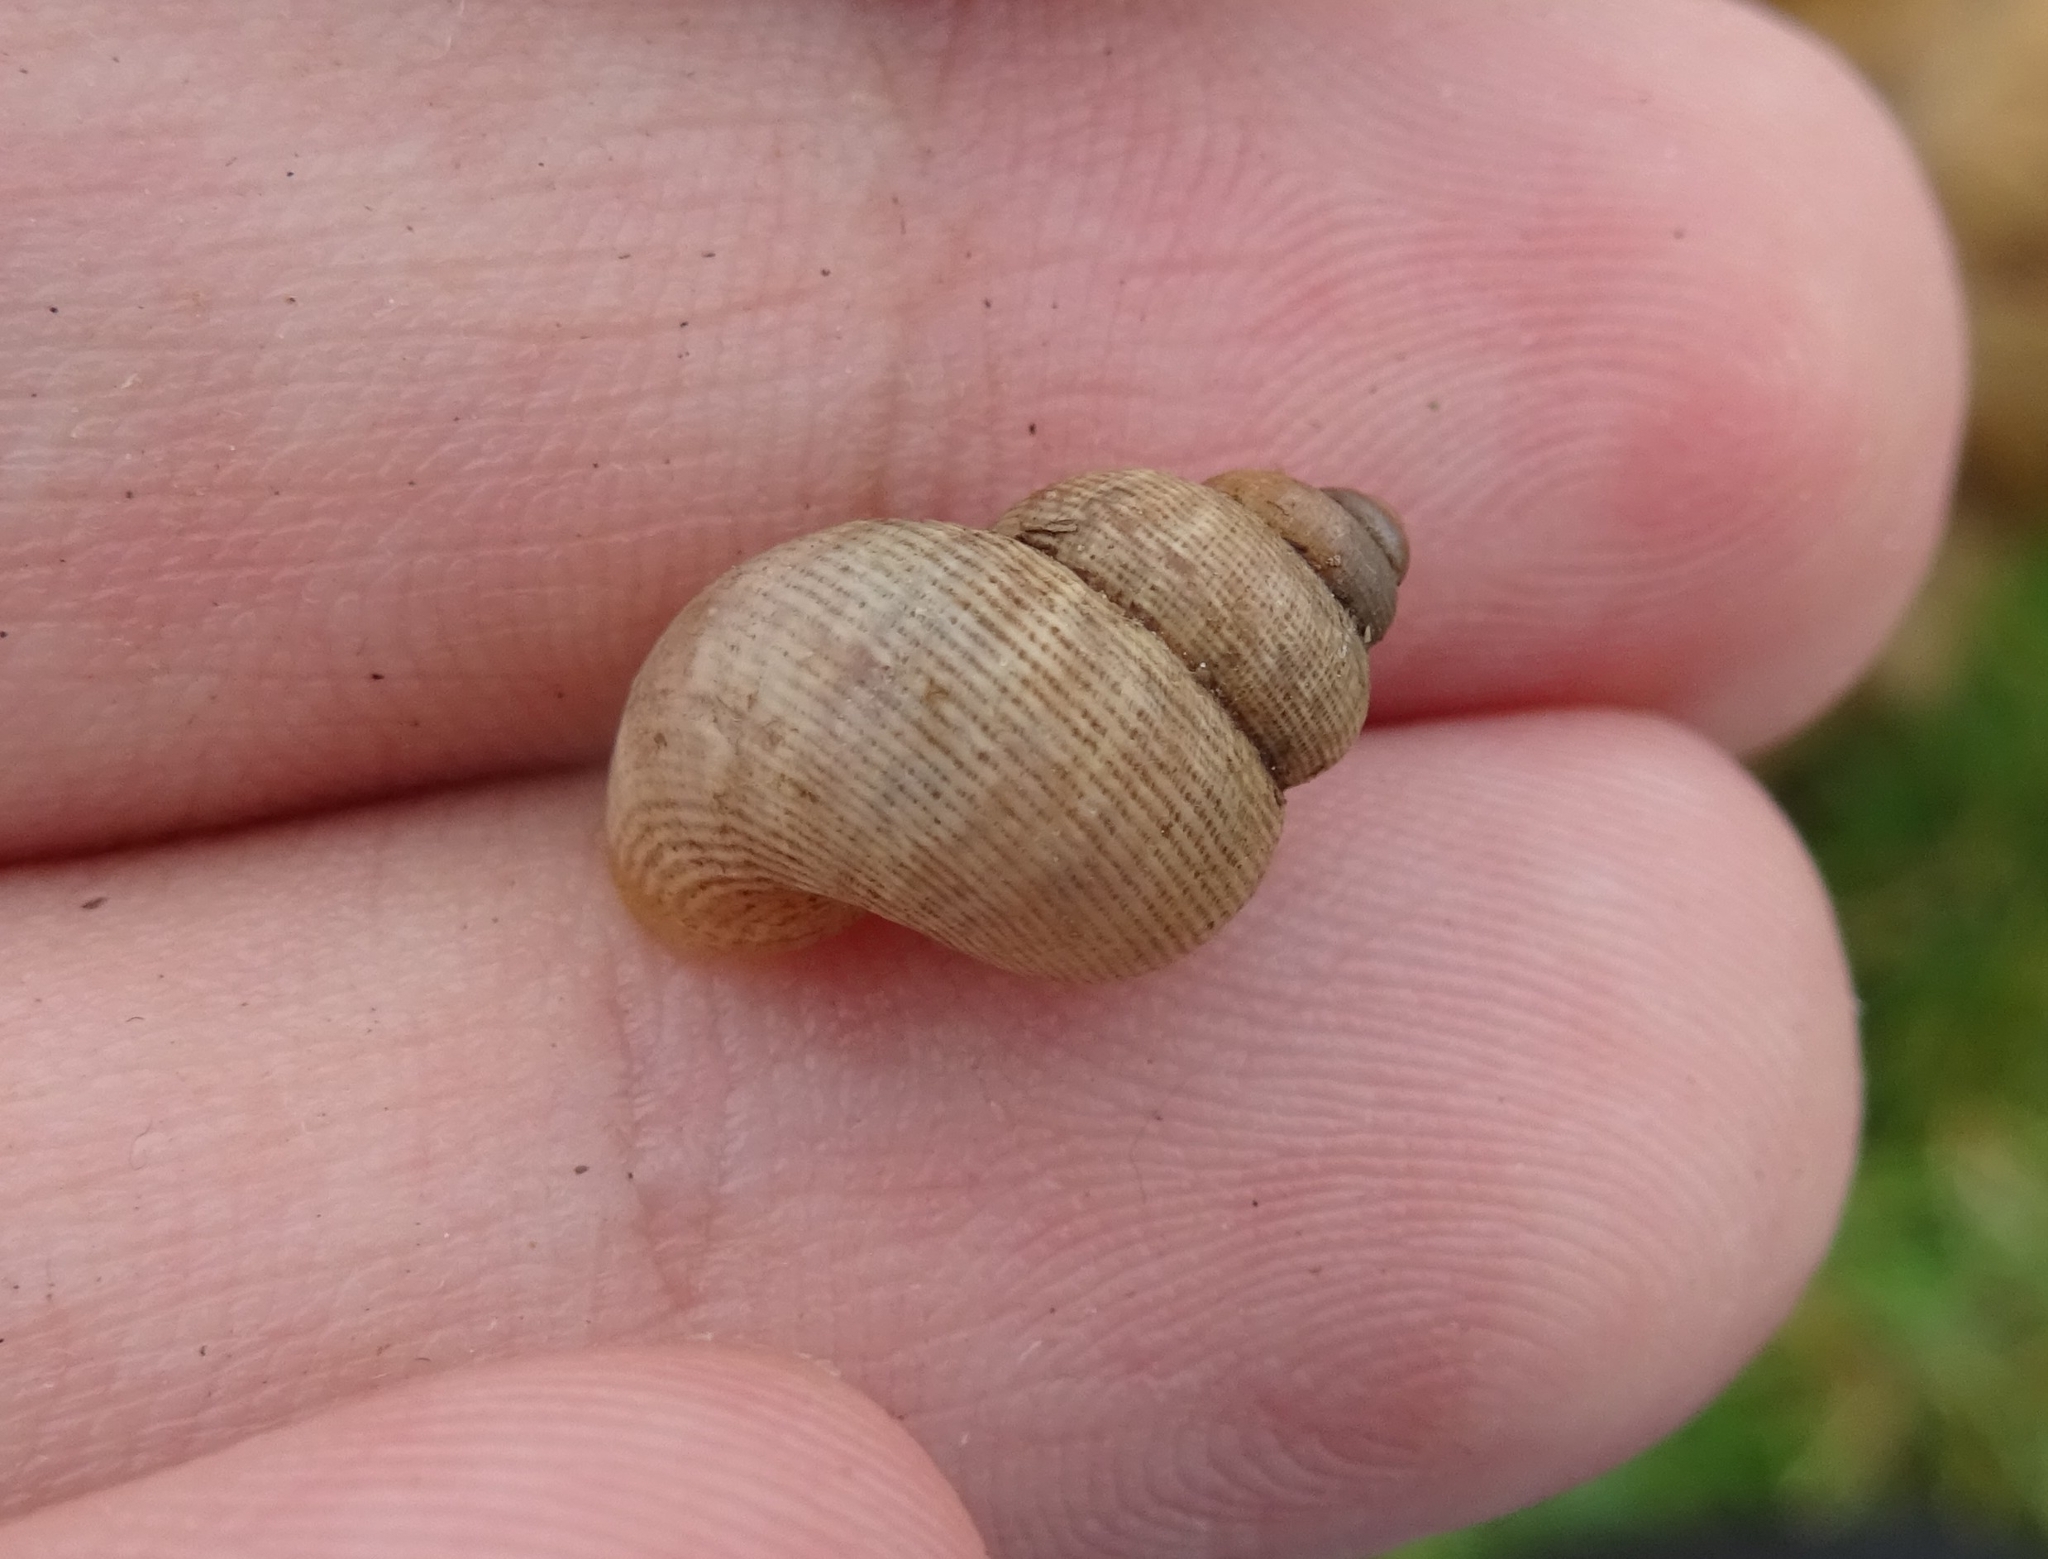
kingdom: Animalia
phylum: Mollusca
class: Gastropoda
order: Littorinimorpha
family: Pomatiidae
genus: Pomatias
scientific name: Pomatias elegans
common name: Red-mouthed snail
